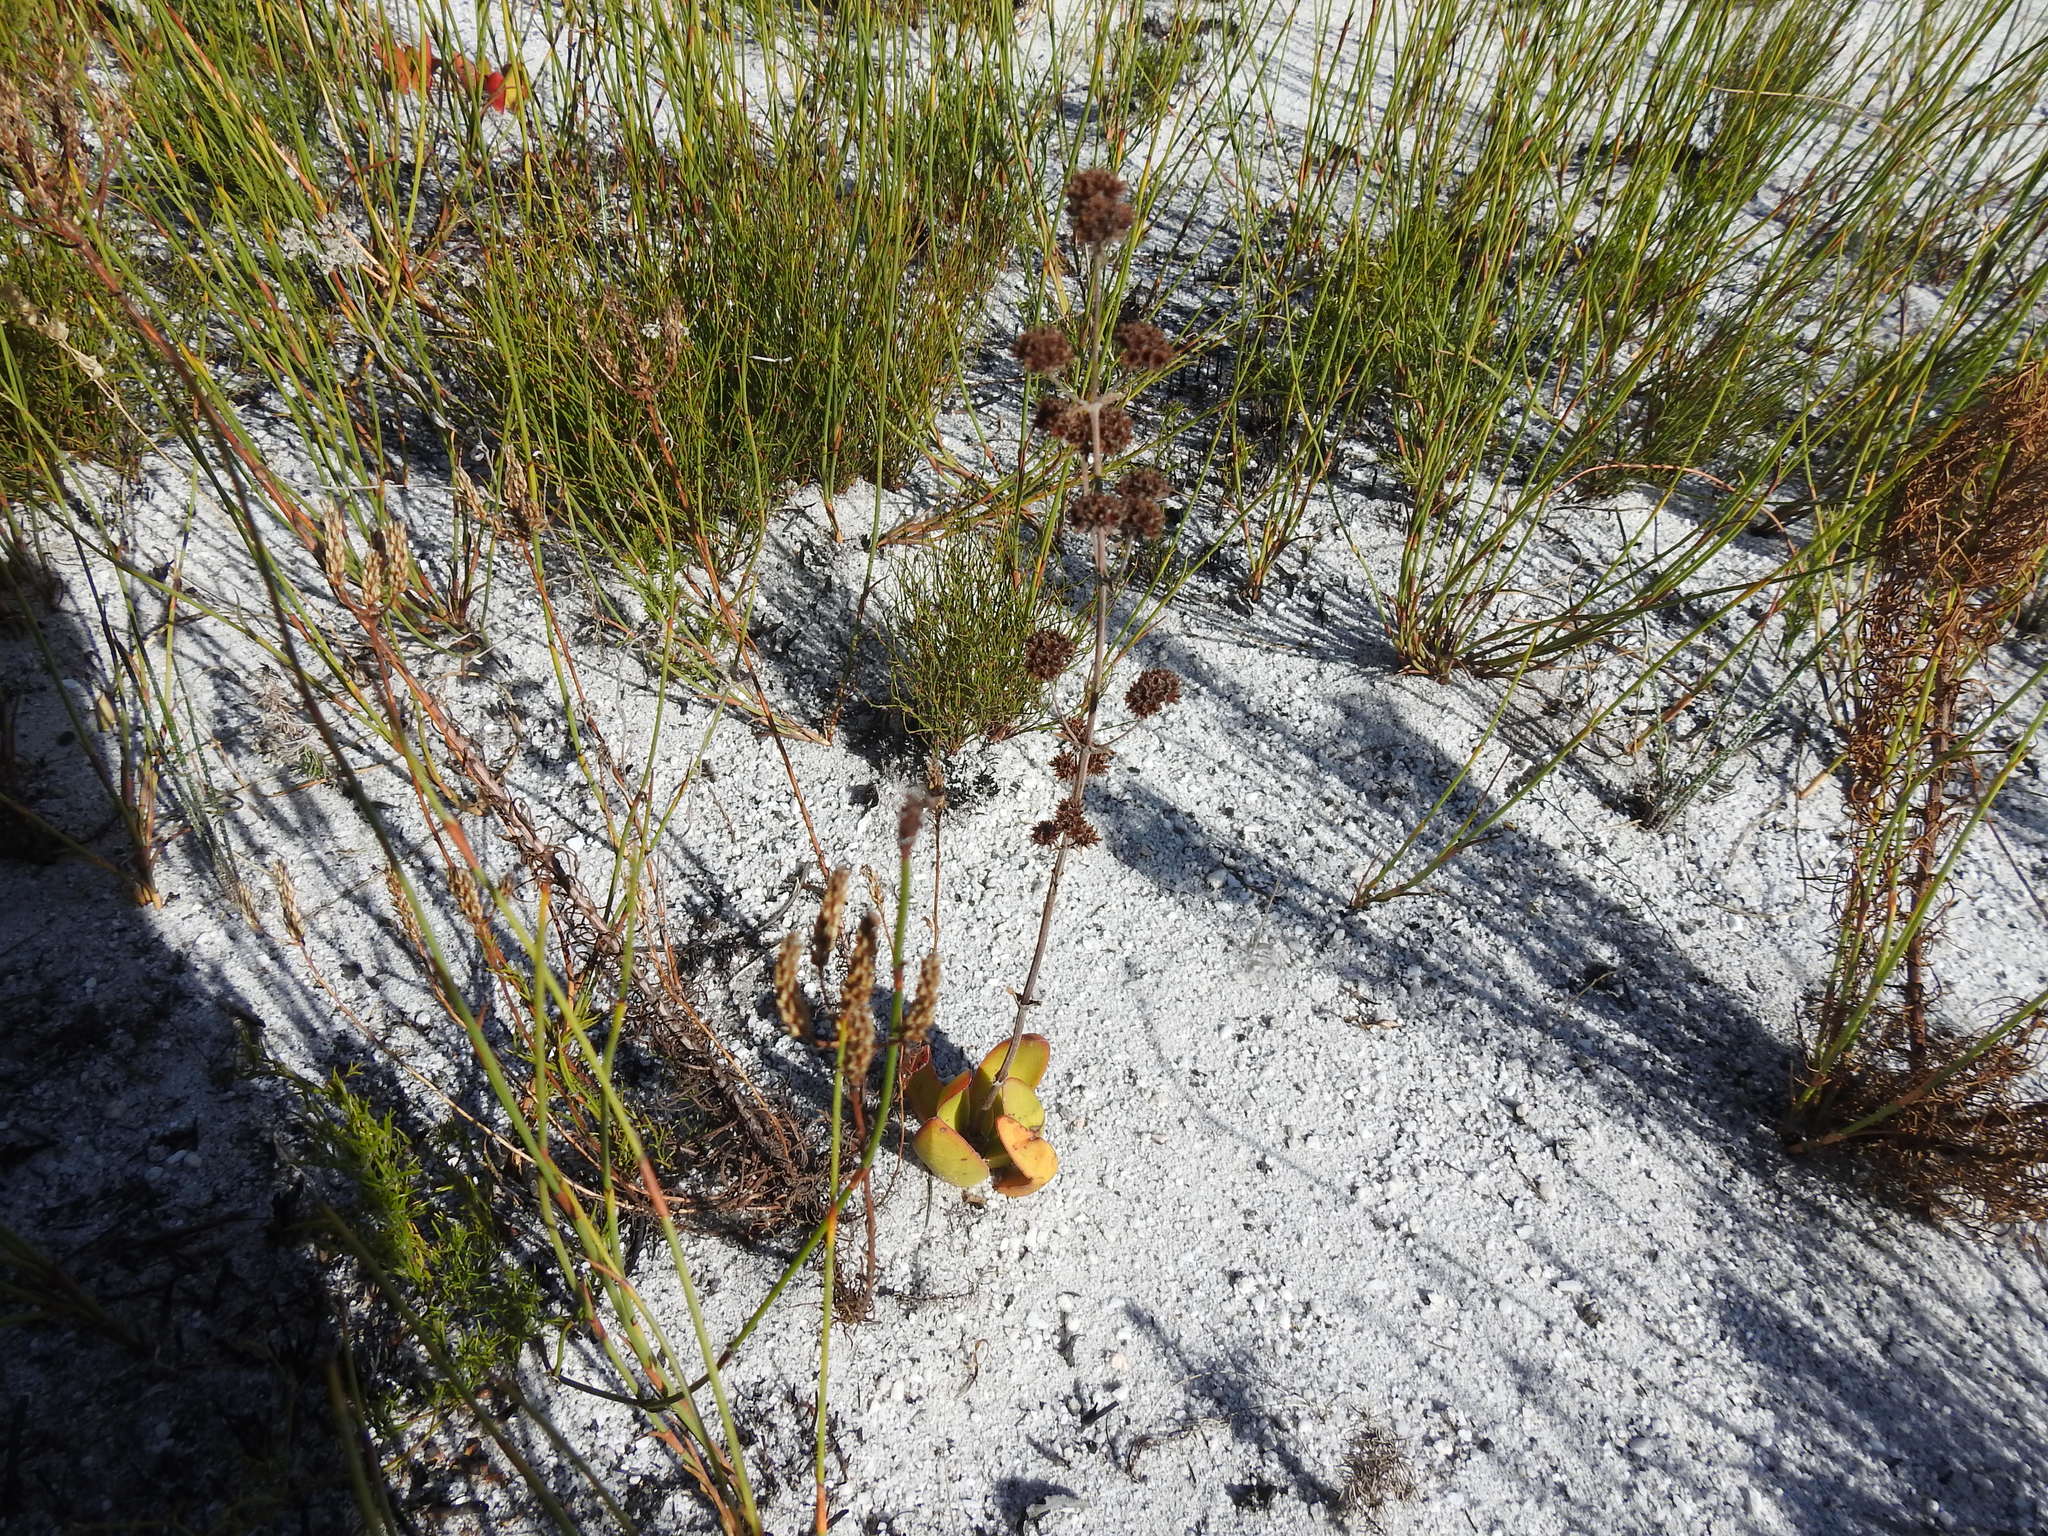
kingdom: Plantae
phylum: Tracheophyta
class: Magnoliopsida
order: Saxifragales
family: Crassulaceae
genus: Crassula
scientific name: Crassula nudicaulis
